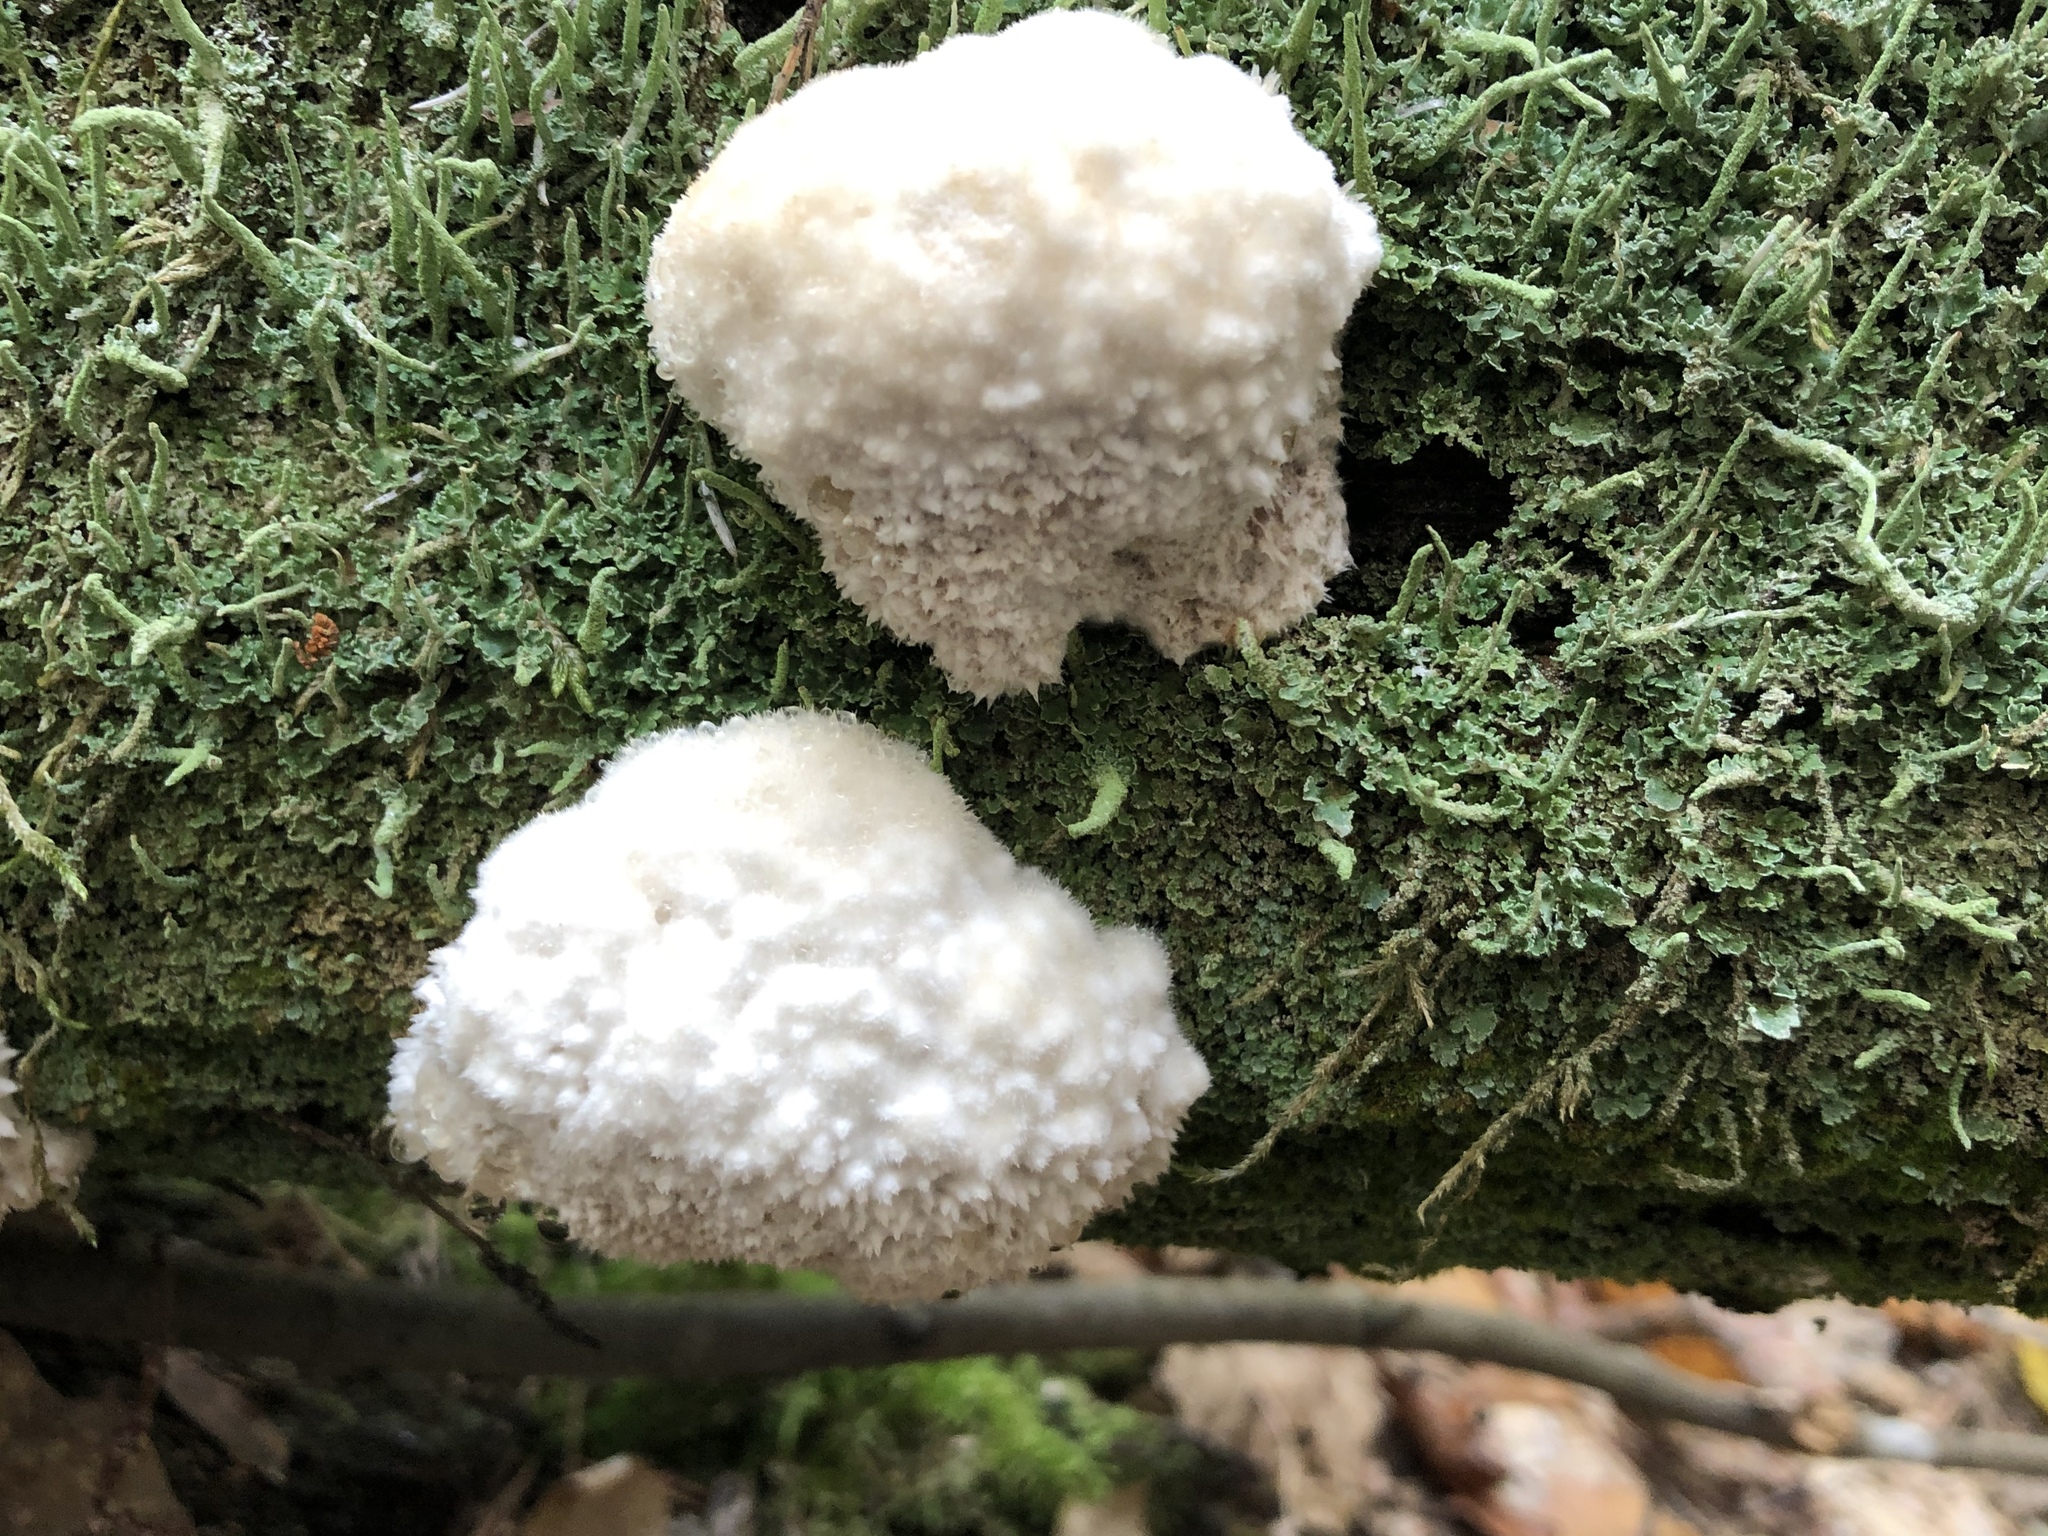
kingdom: Fungi
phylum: Basidiomycota
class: Agaricomycetes
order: Polyporales
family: Dacryobolaceae
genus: Postia
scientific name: Postia ptychogaster
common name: Powderpuff bracket
